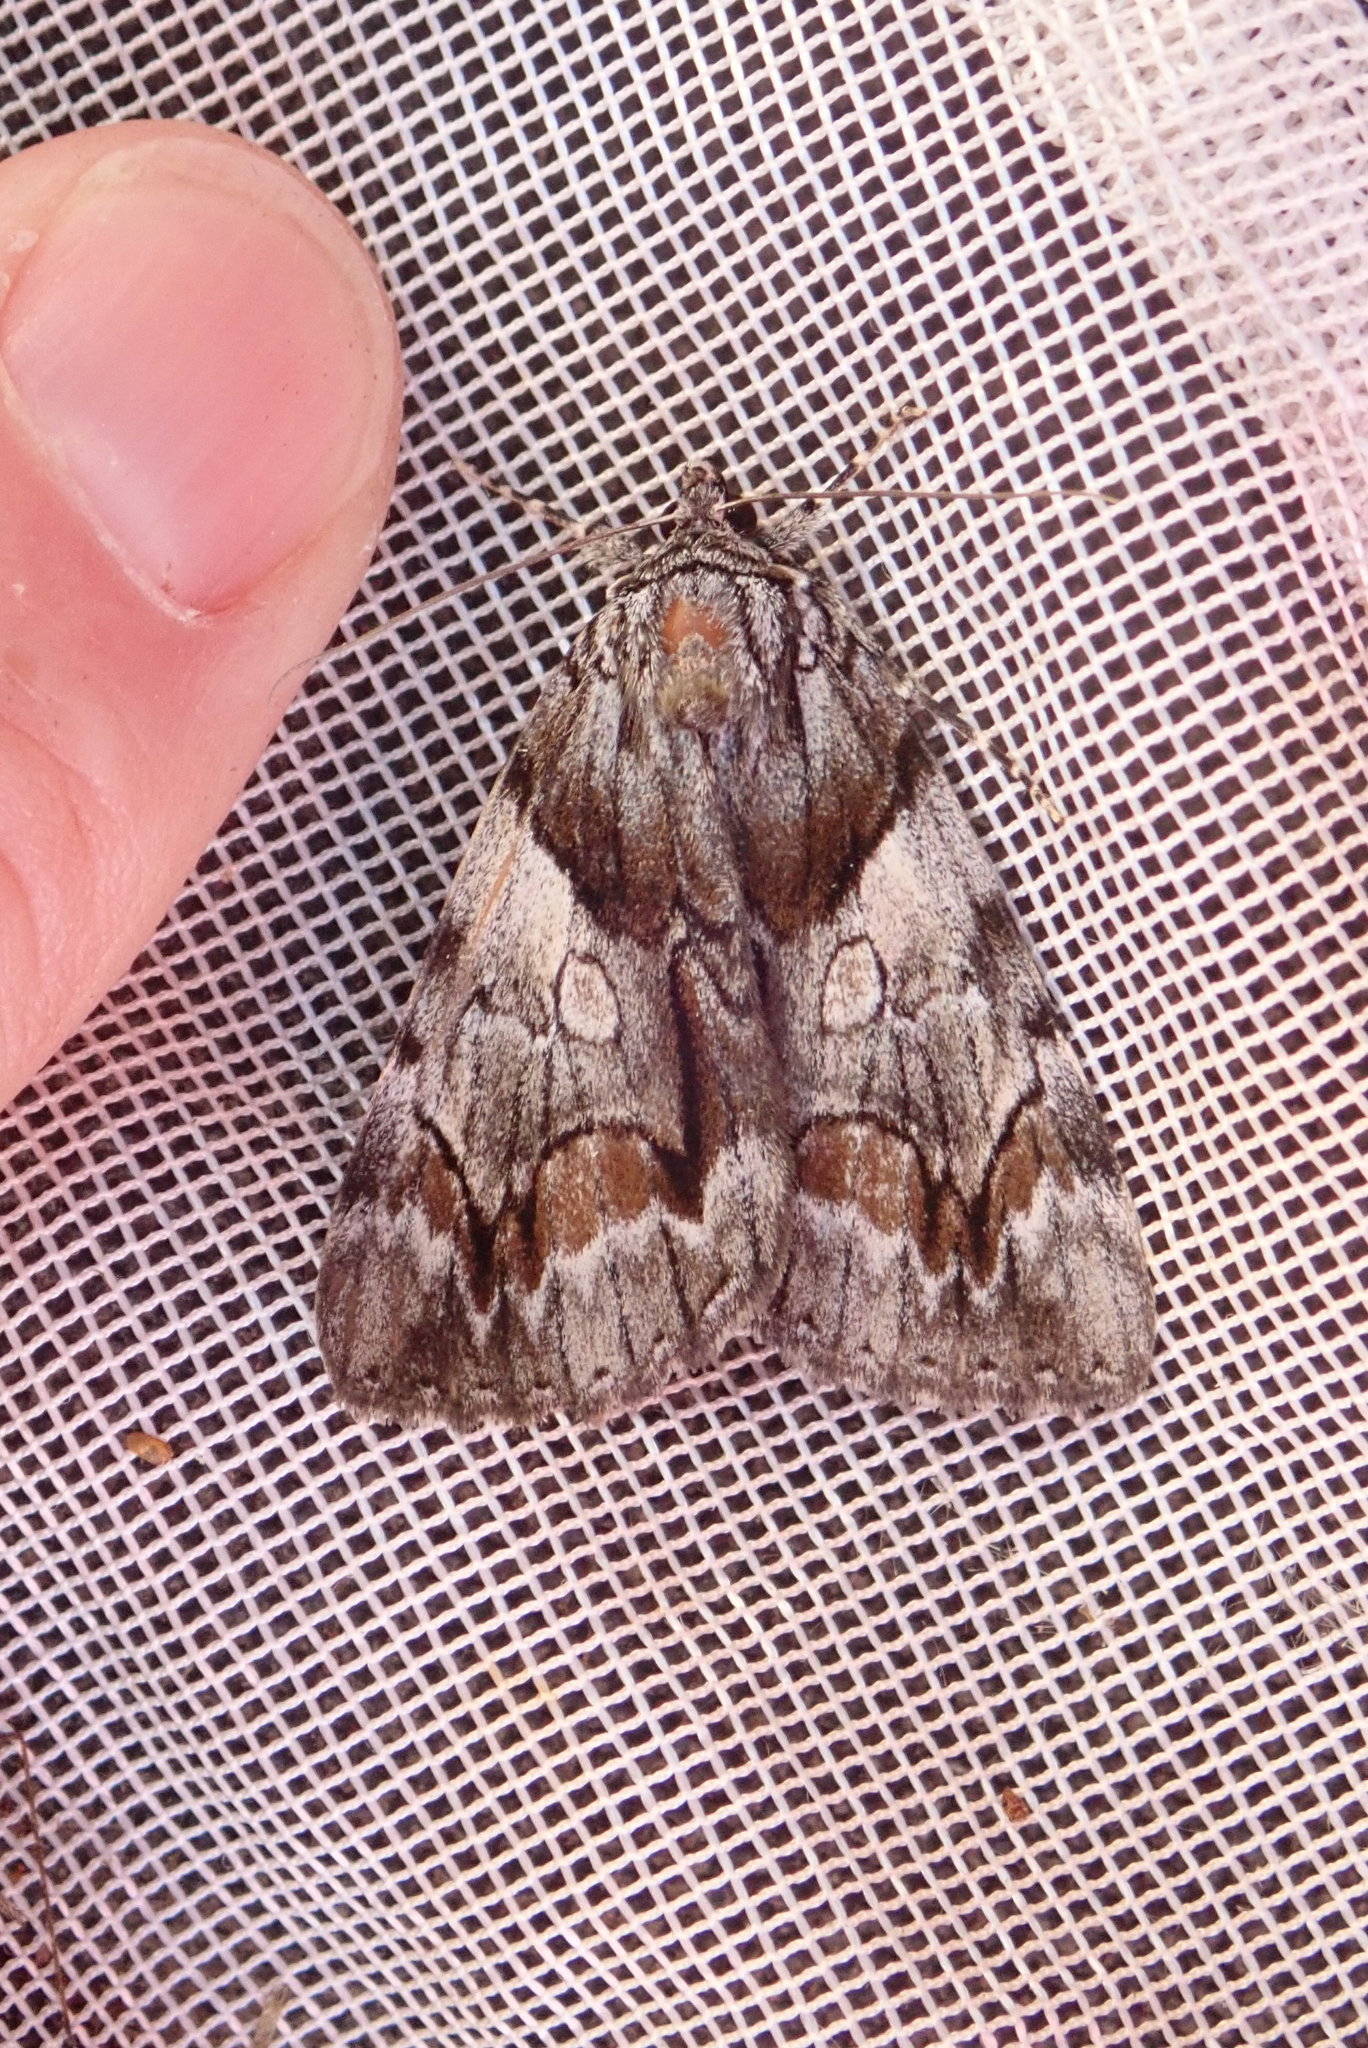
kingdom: Animalia
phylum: Arthropoda
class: Insecta
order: Lepidoptera
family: Erebidae
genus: Catocala
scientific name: Catocala blandula
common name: Charming underwing
